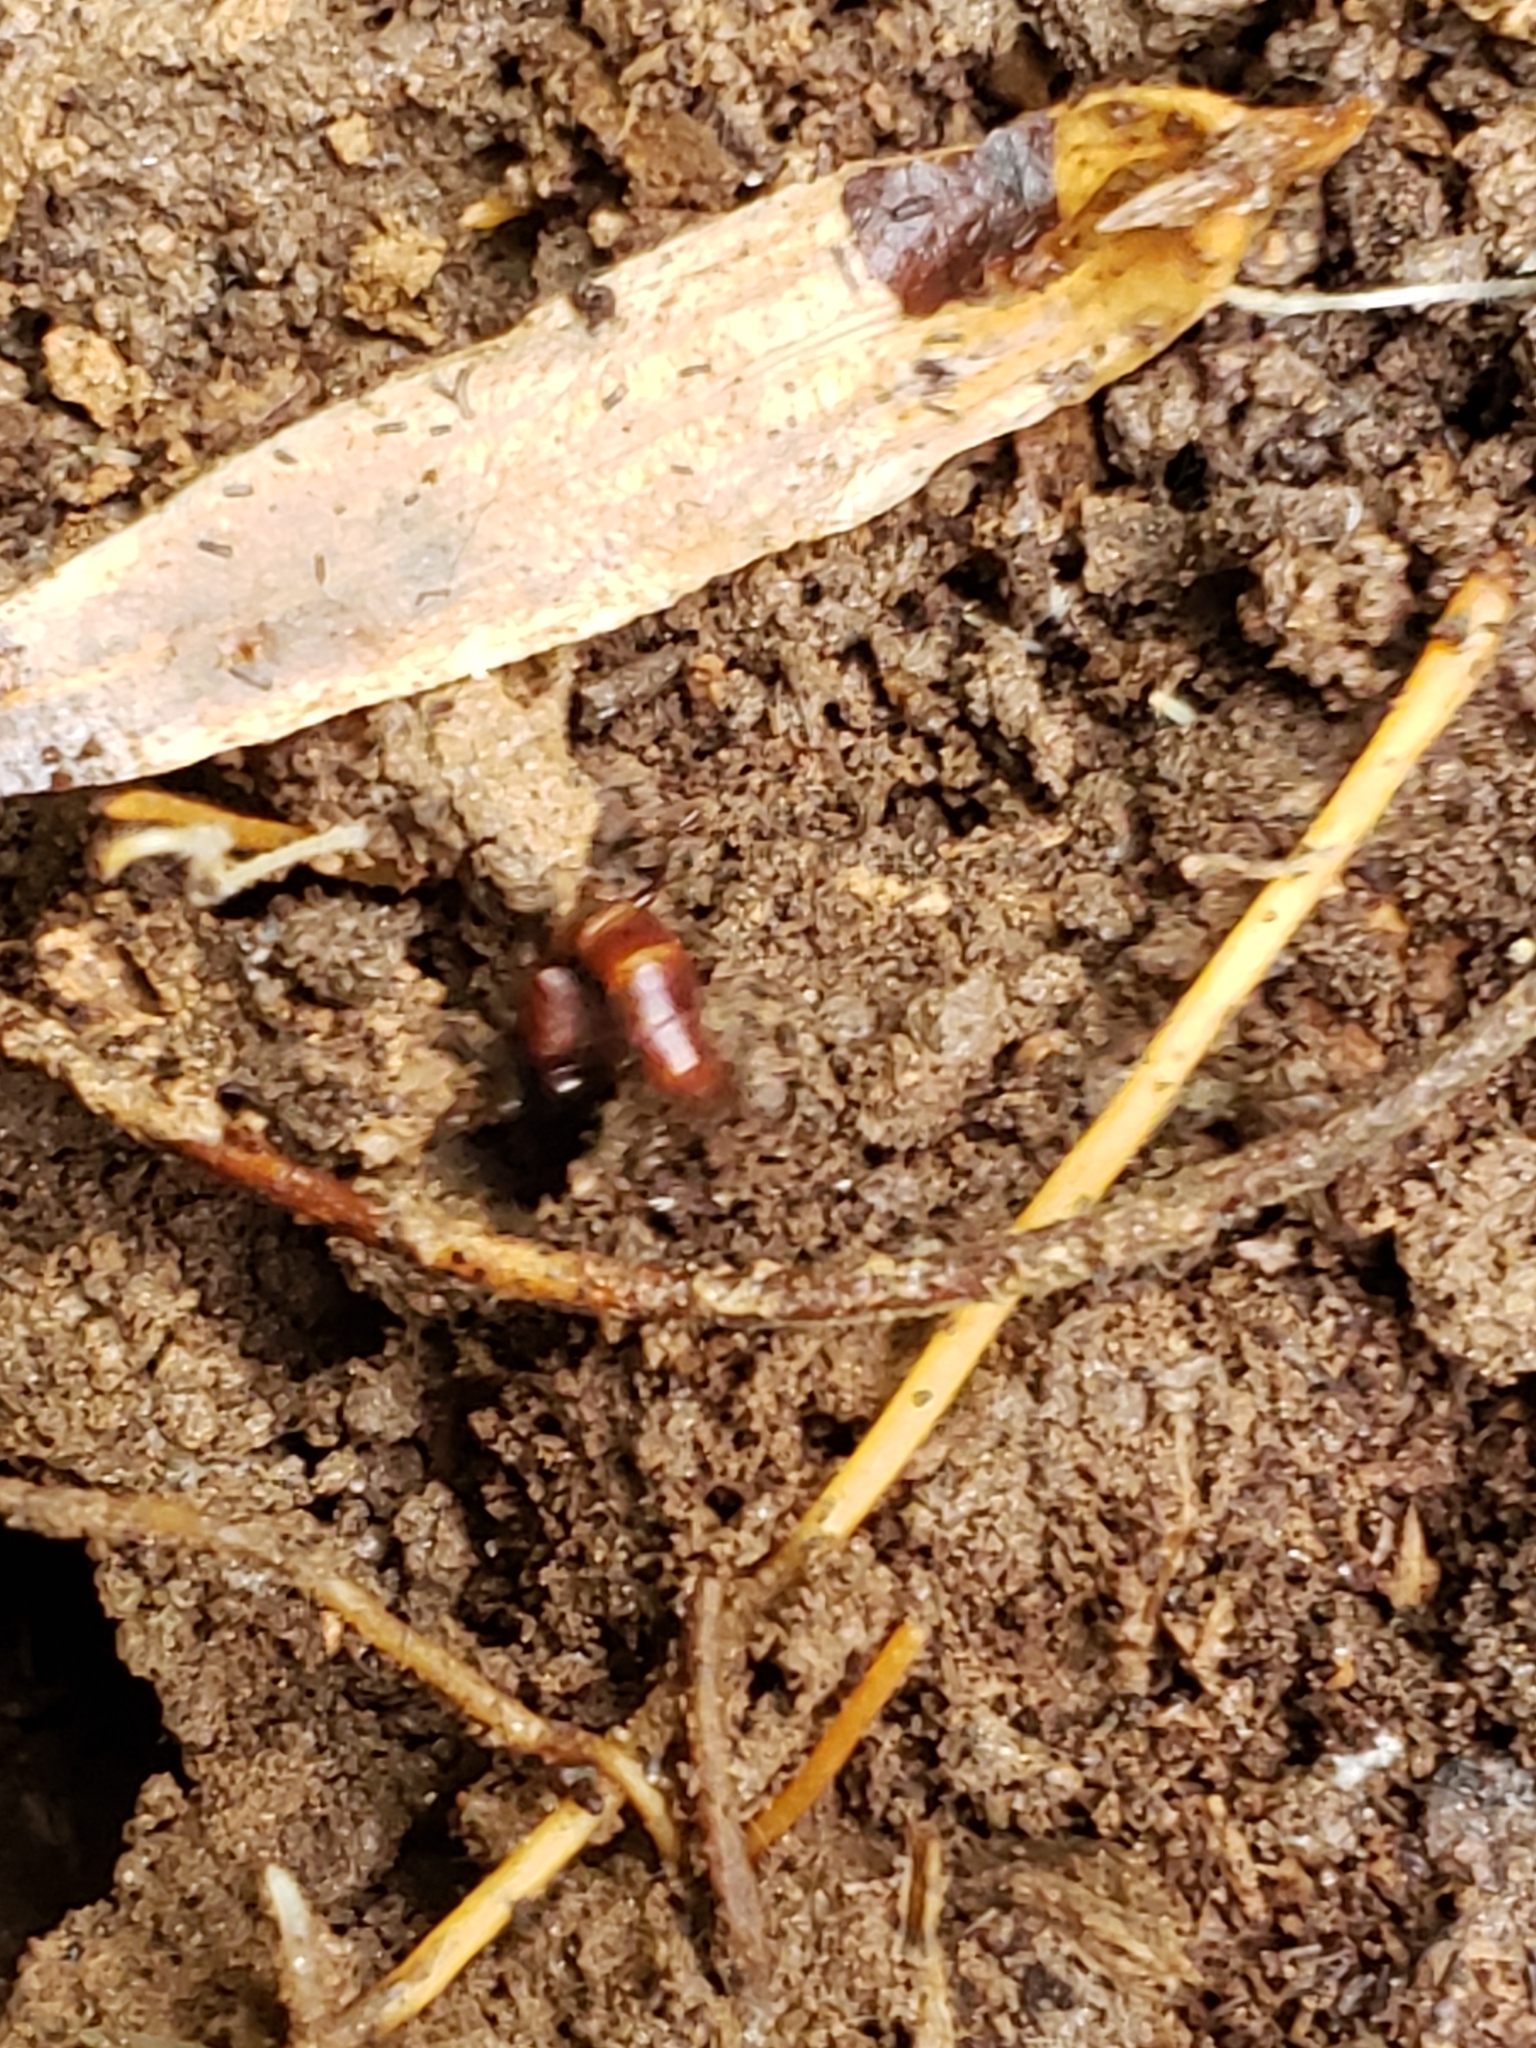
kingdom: Animalia
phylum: Arthropoda
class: Insecta
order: Coleoptera
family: Staphylinidae
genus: Hesperus
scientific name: Hesperus baltimorensis
